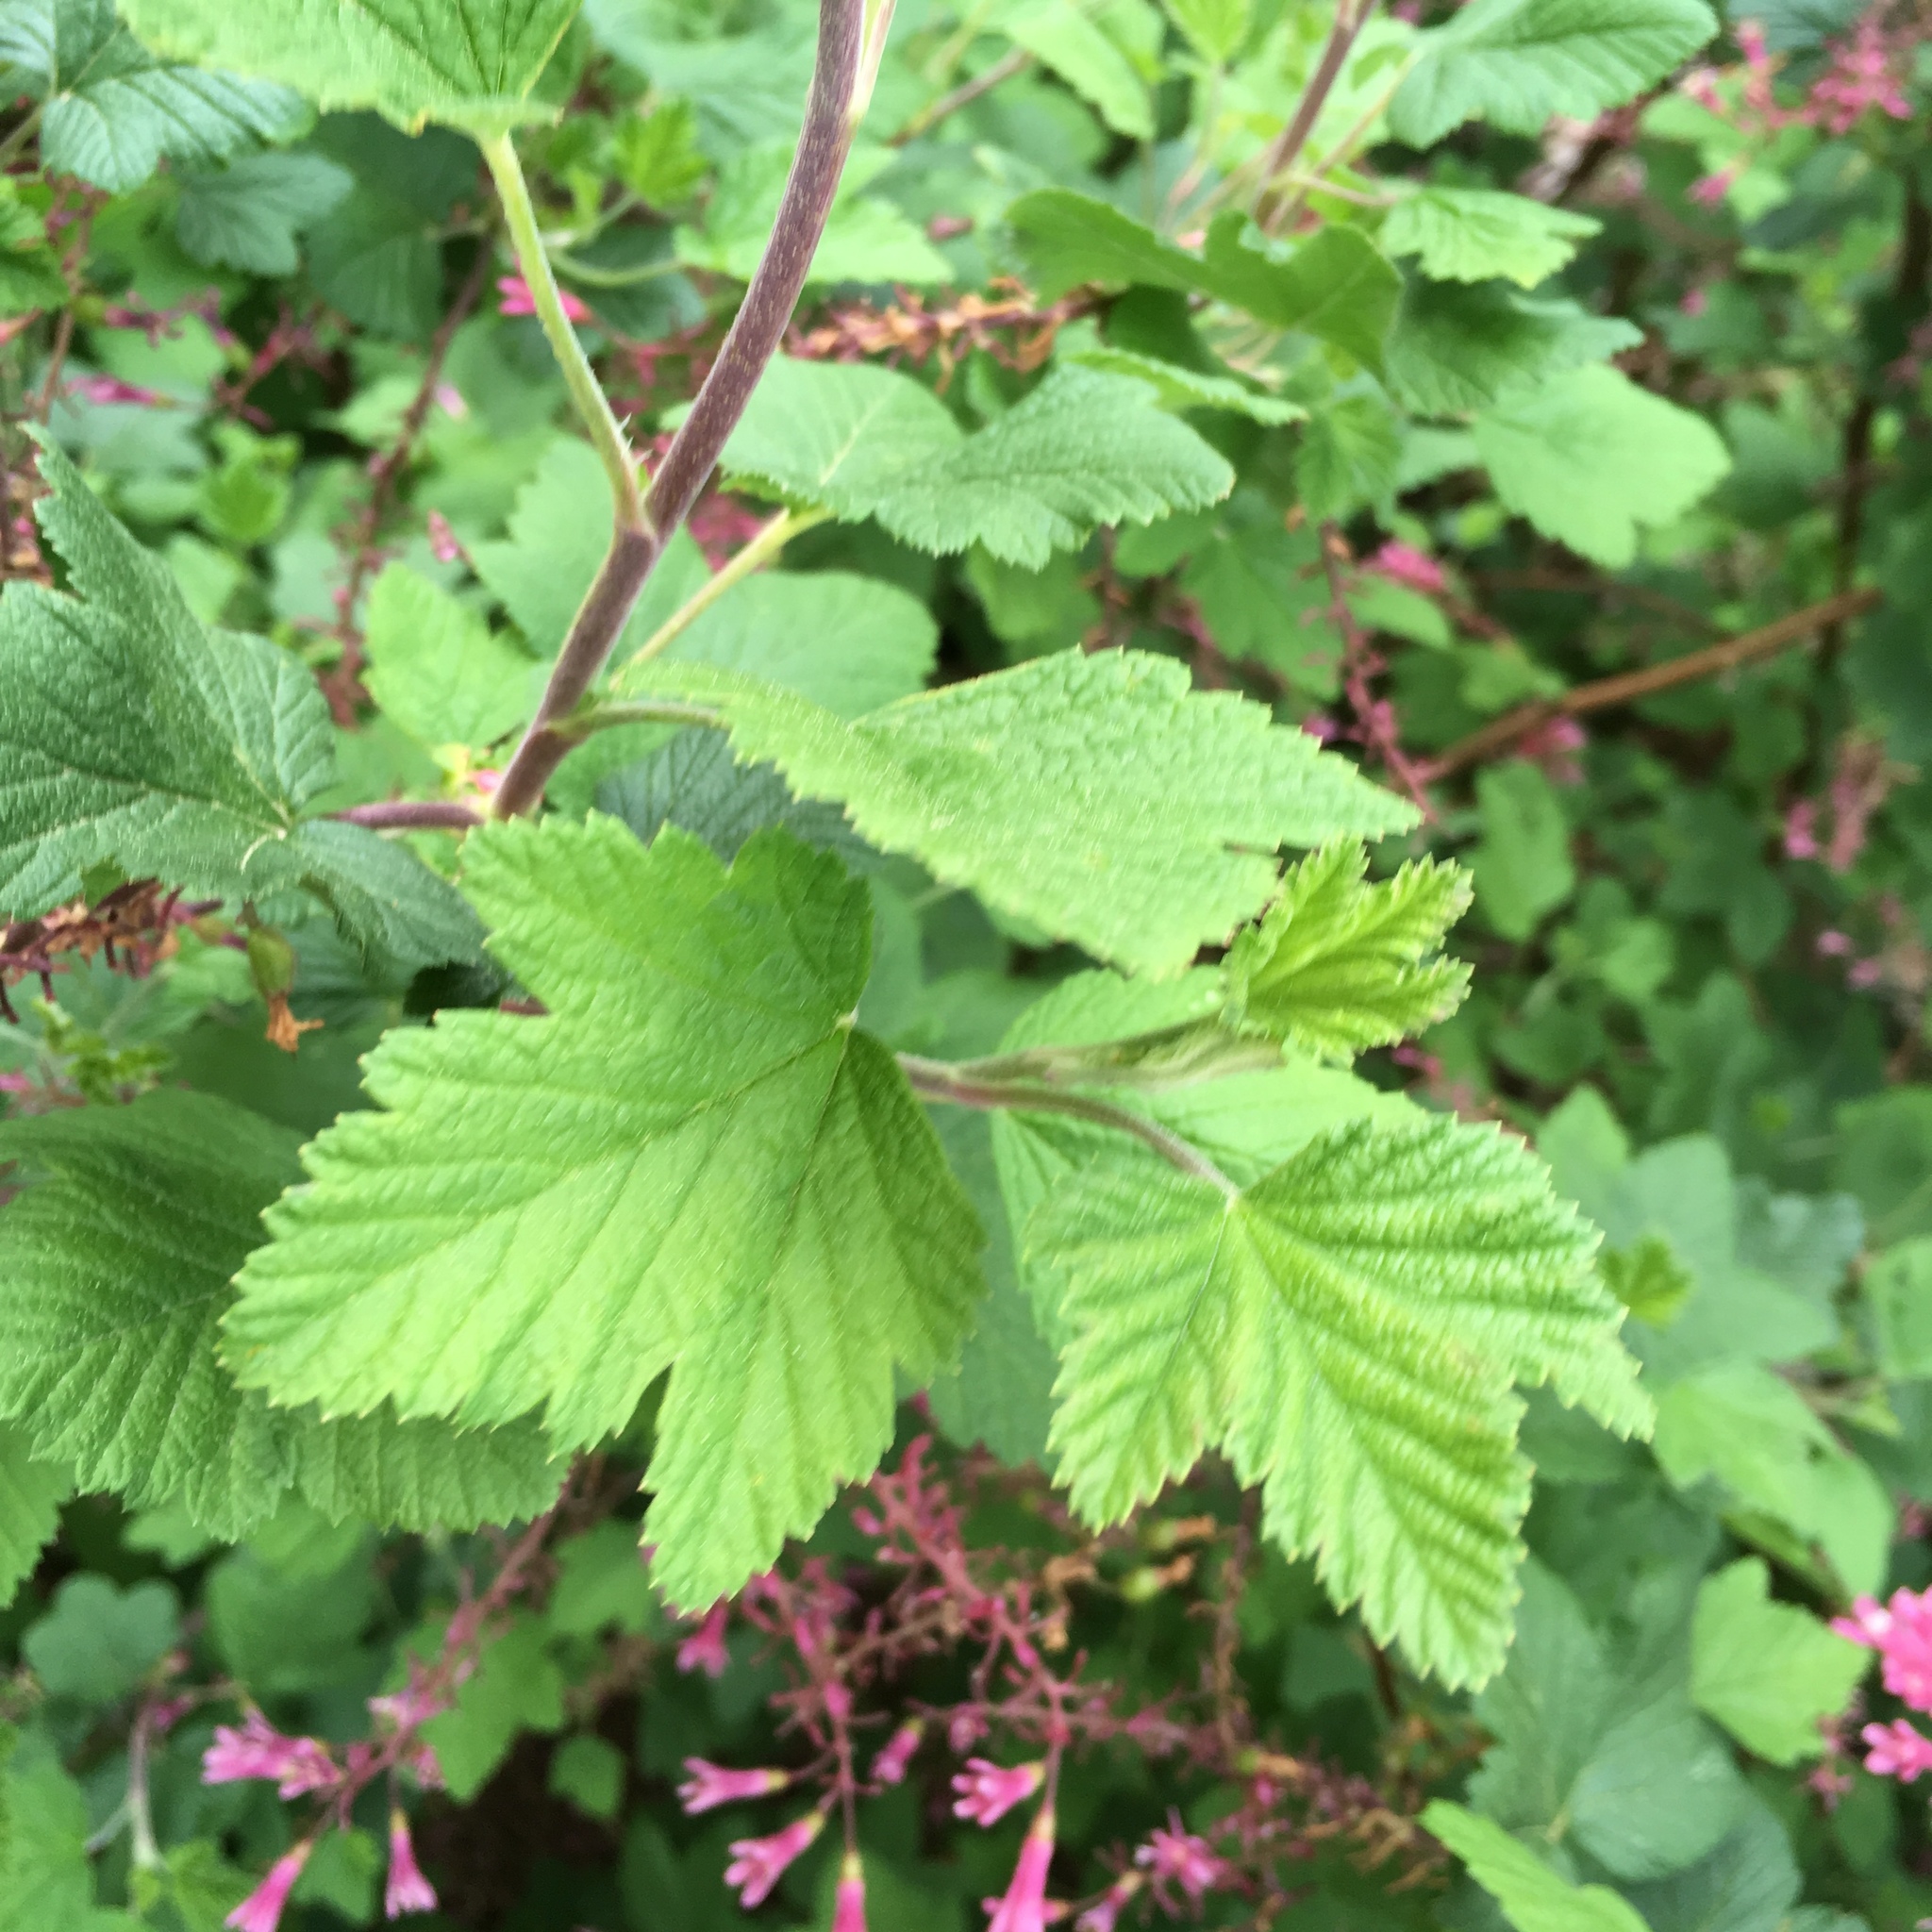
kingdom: Plantae
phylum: Tracheophyta
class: Magnoliopsida
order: Saxifragales
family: Grossulariaceae
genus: Ribes
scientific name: Ribes sanguineum
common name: Flowering currant
